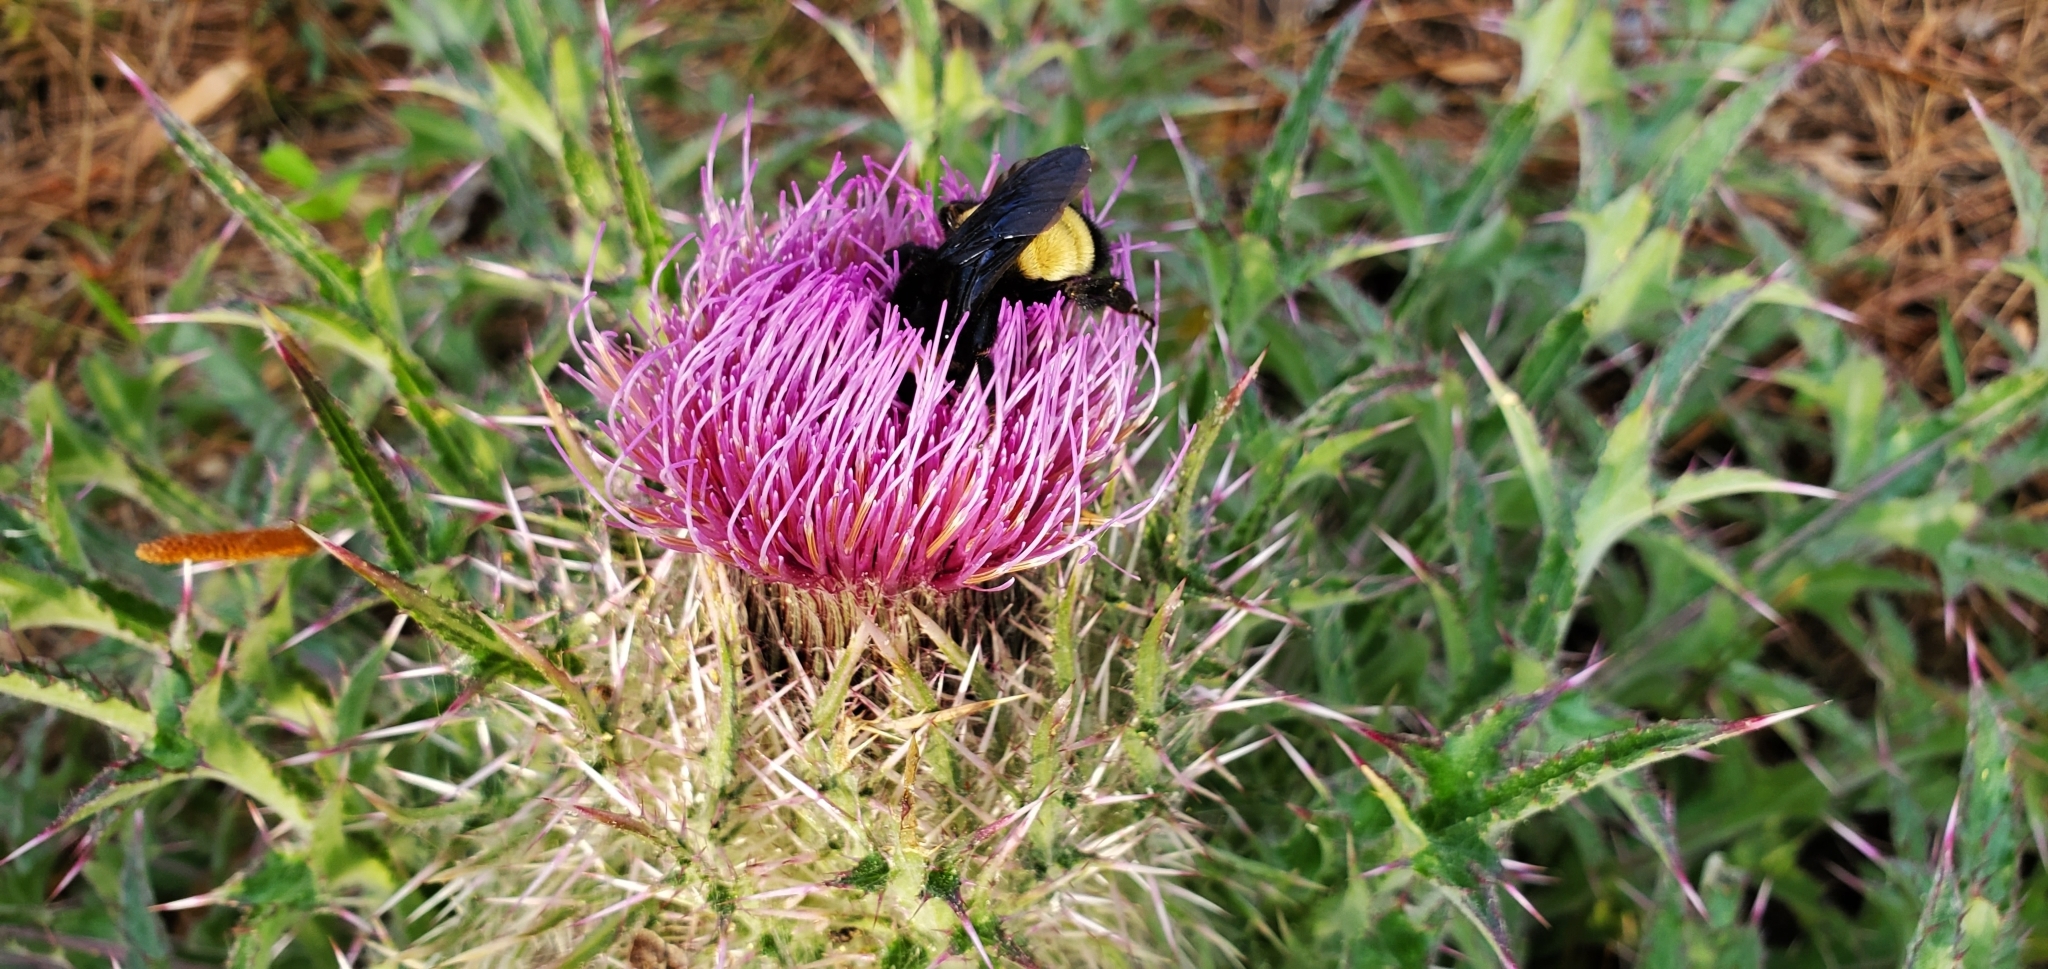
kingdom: Plantae
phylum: Tracheophyta
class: Magnoliopsida
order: Asterales
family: Asteraceae
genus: Cirsium
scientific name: Cirsium horridulum
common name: Bristly thistle
